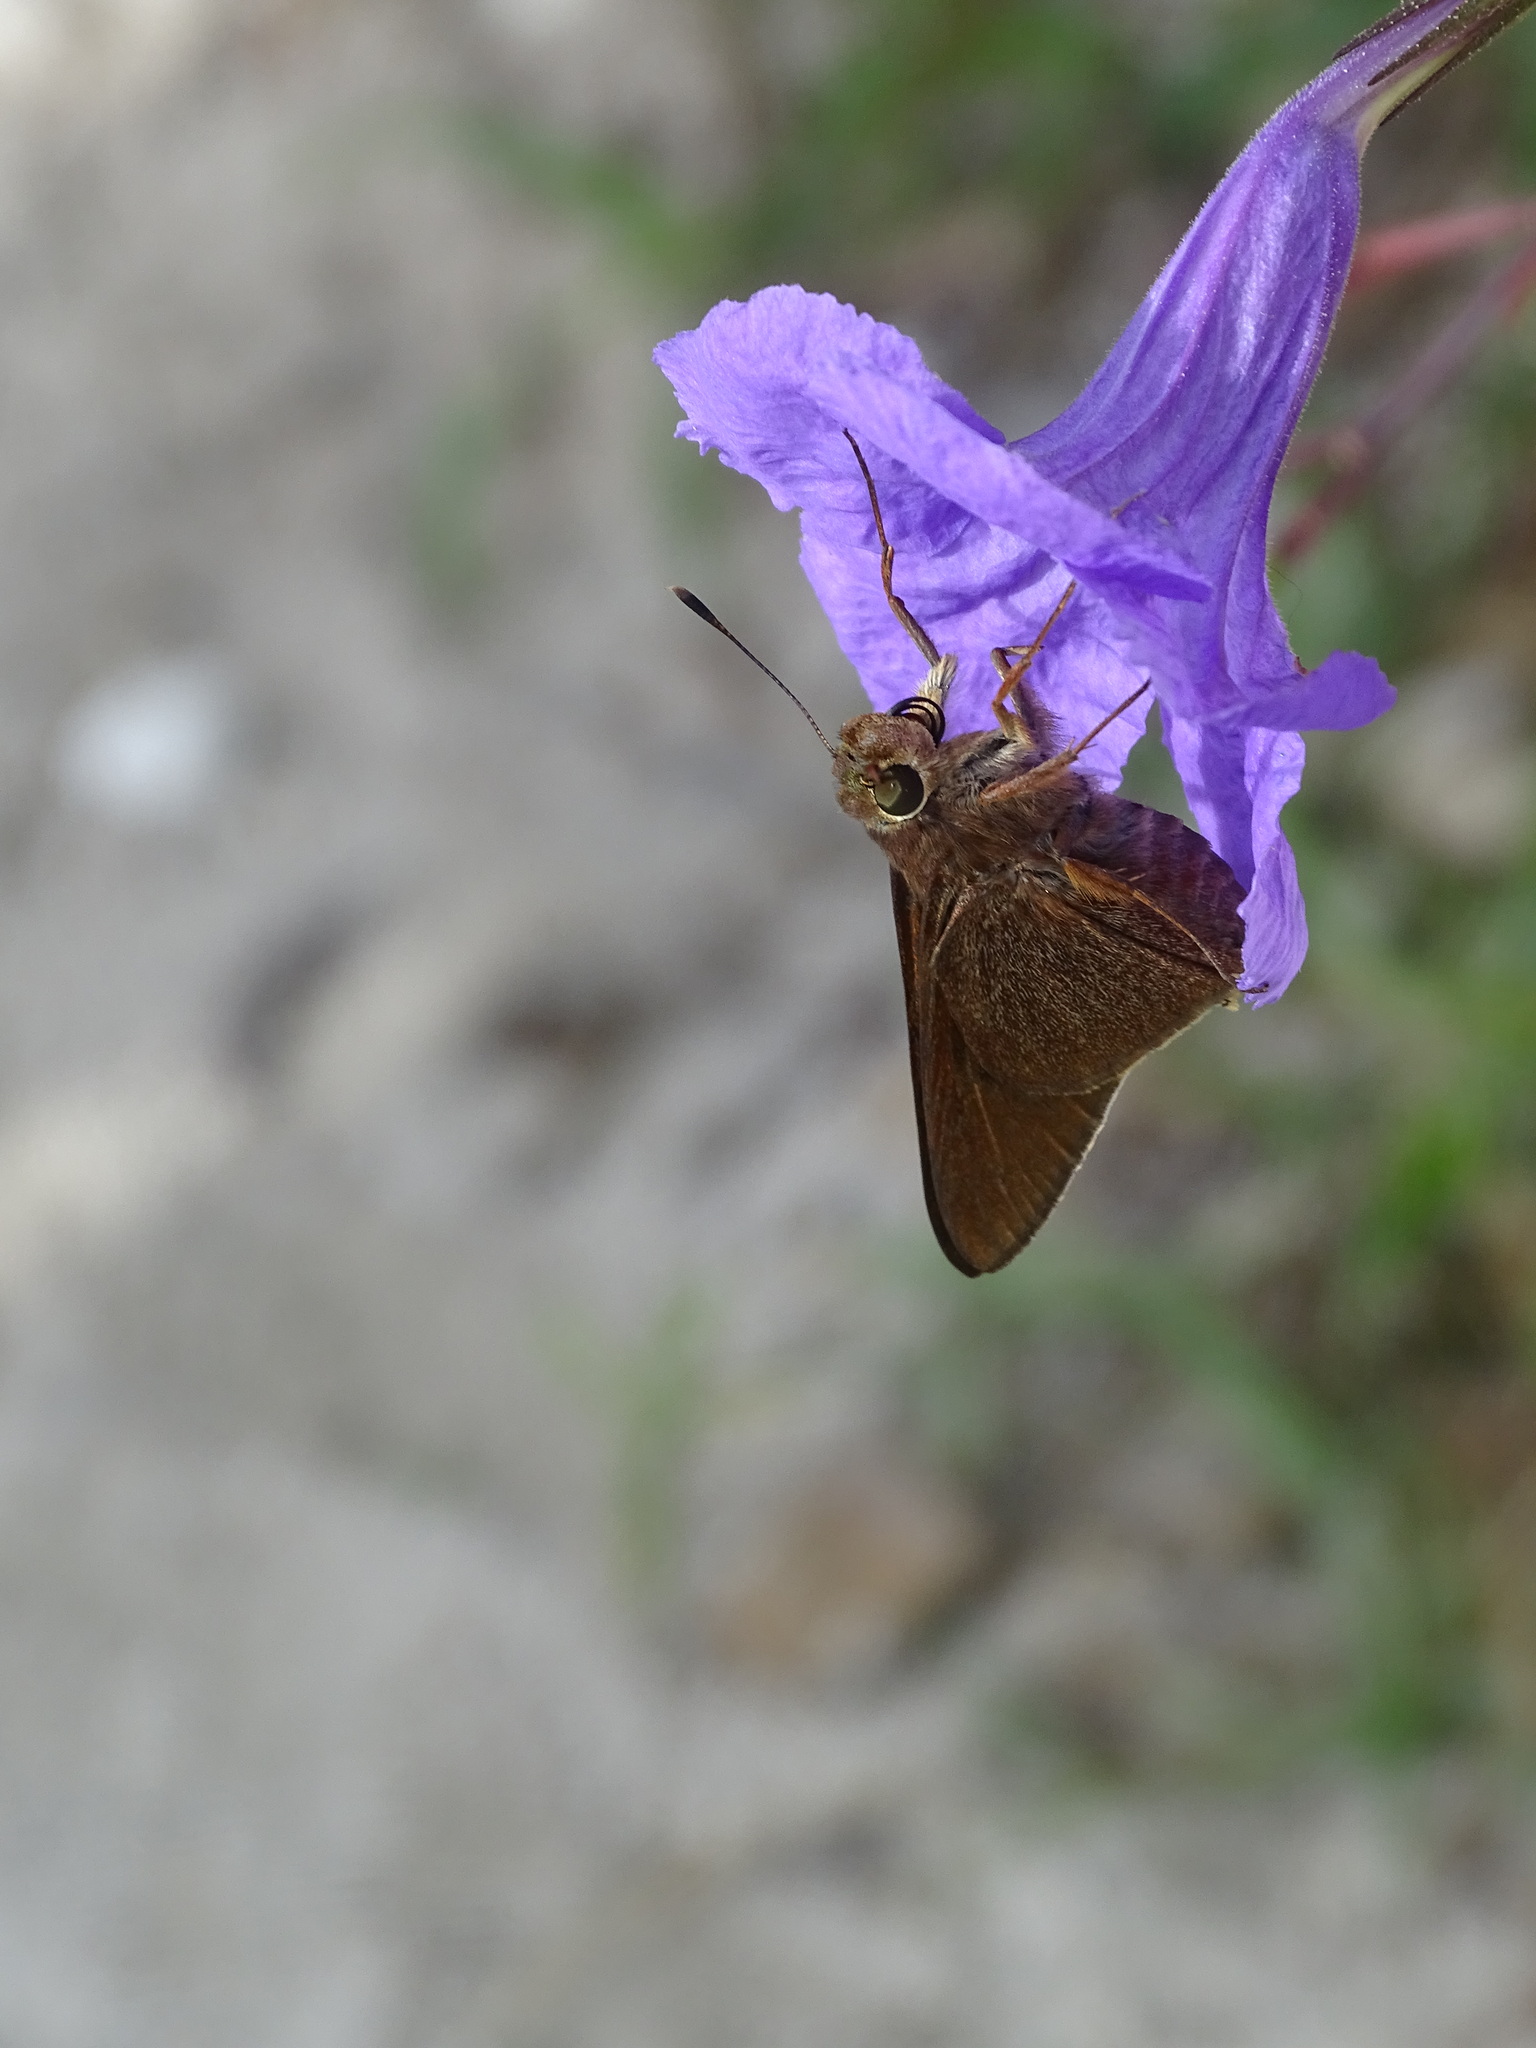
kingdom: Animalia
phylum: Arthropoda
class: Insecta
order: Lepidoptera
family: Hesperiidae
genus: Asbolis
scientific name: Asbolis capucinus
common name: Monk skipper
